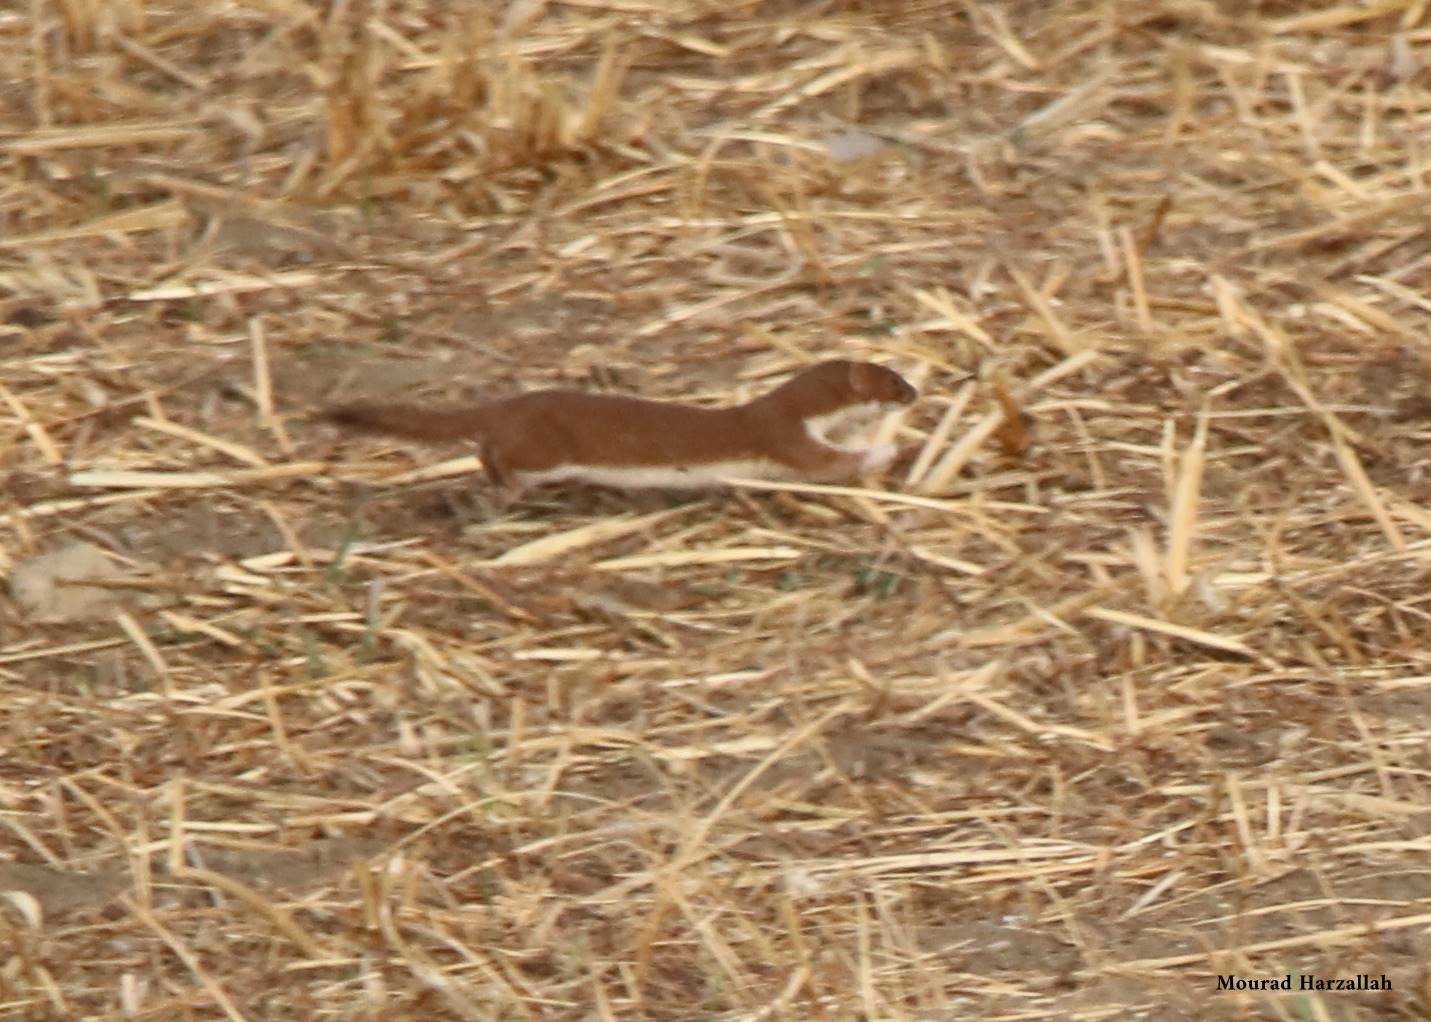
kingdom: Animalia
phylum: Chordata
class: Mammalia
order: Carnivora
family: Mustelidae
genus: Mustela
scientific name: Mustela nivalis
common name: Least weasel
